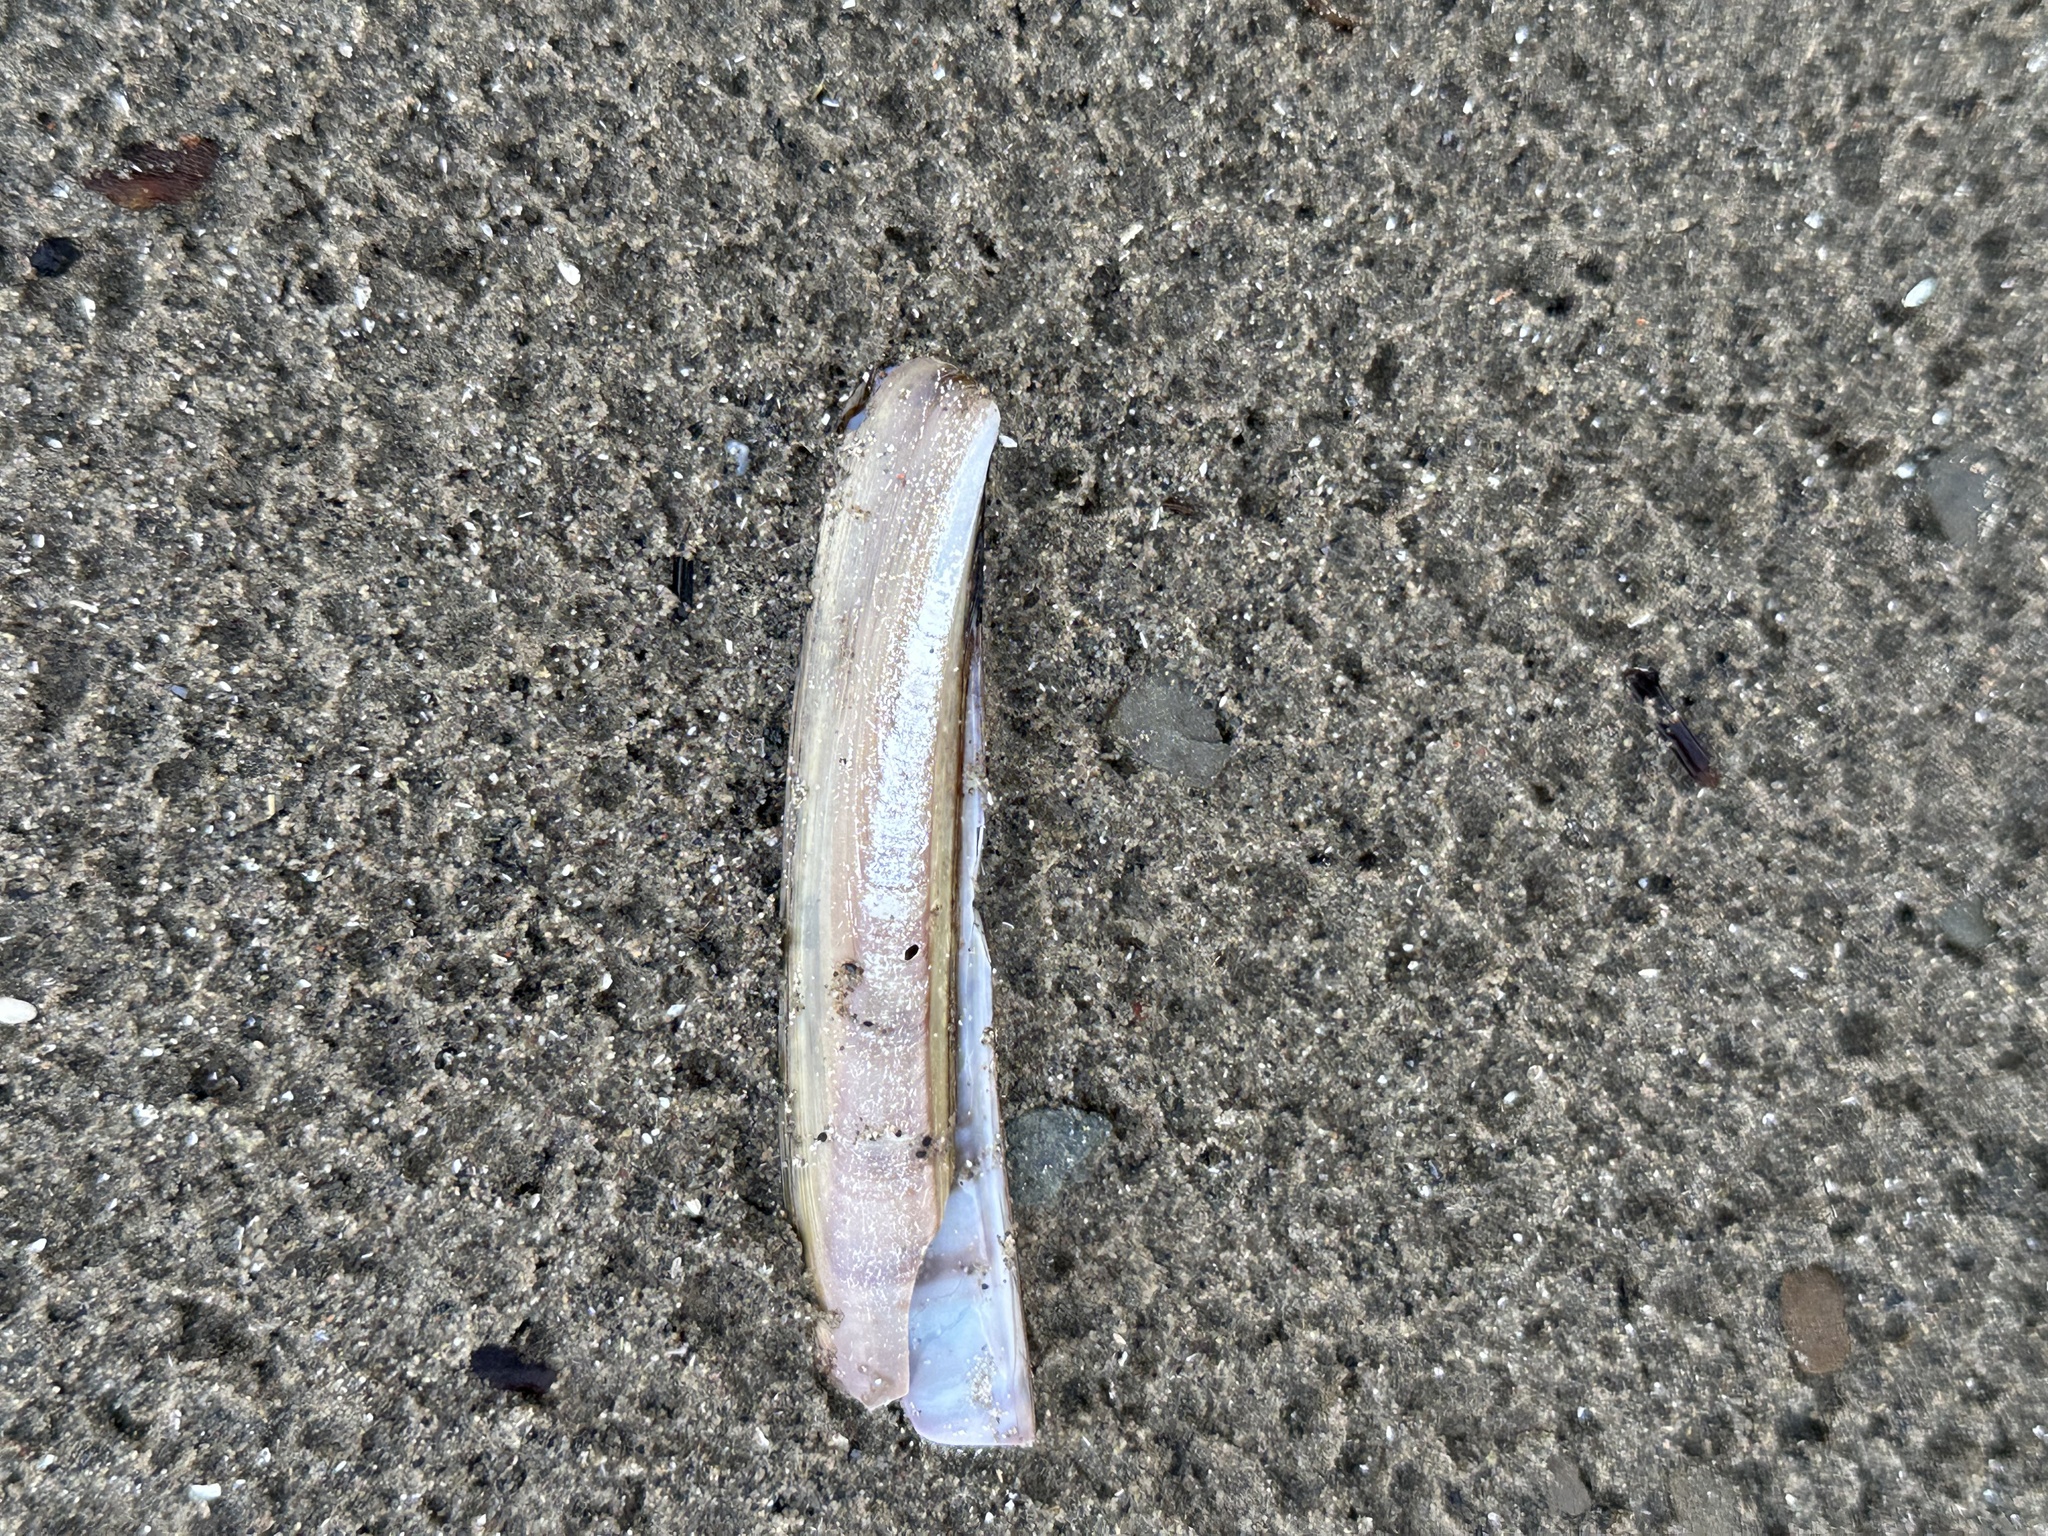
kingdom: Animalia
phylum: Mollusca
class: Bivalvia
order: Adapedonta
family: Pharidae
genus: Ensis
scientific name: Ensis leei
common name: American jack knife clam
